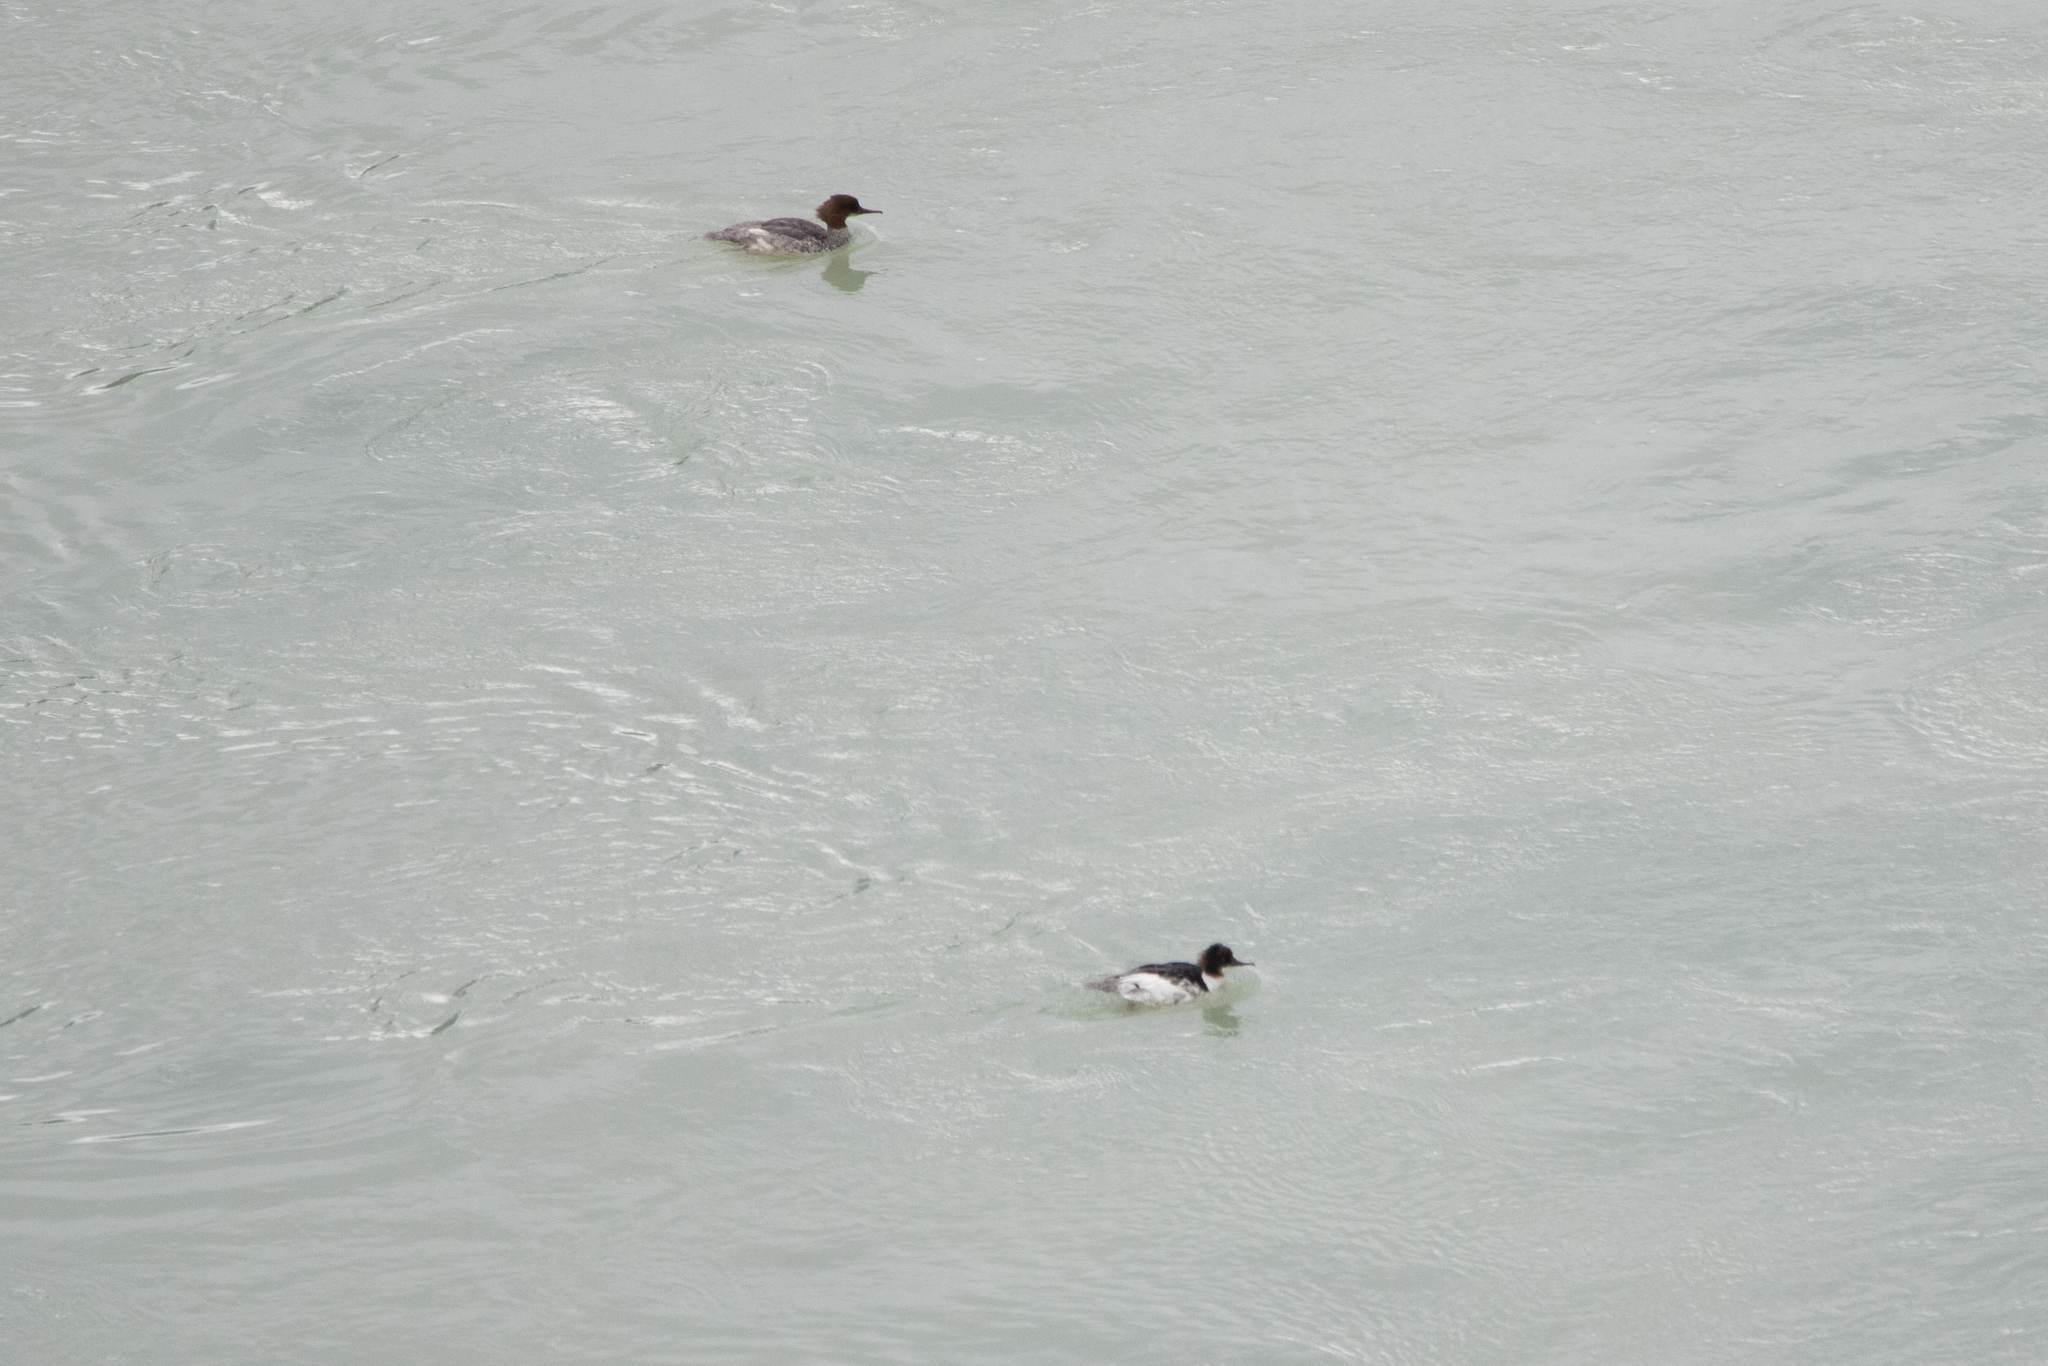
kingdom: Animalia
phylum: Chordata
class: Aves
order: Anseriformes
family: Anatidae
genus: Mergus
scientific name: Mergus merganser
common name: Common merganser
